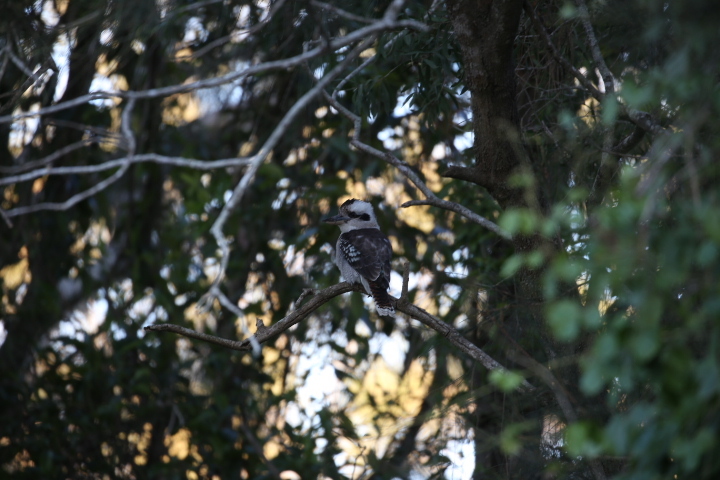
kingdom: Animalia
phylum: Chordata
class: Aves
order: Coraciiformes
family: Alcedinidae
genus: Dacelo
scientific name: Dacelo novaeguineae
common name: Laughing kookaburra
